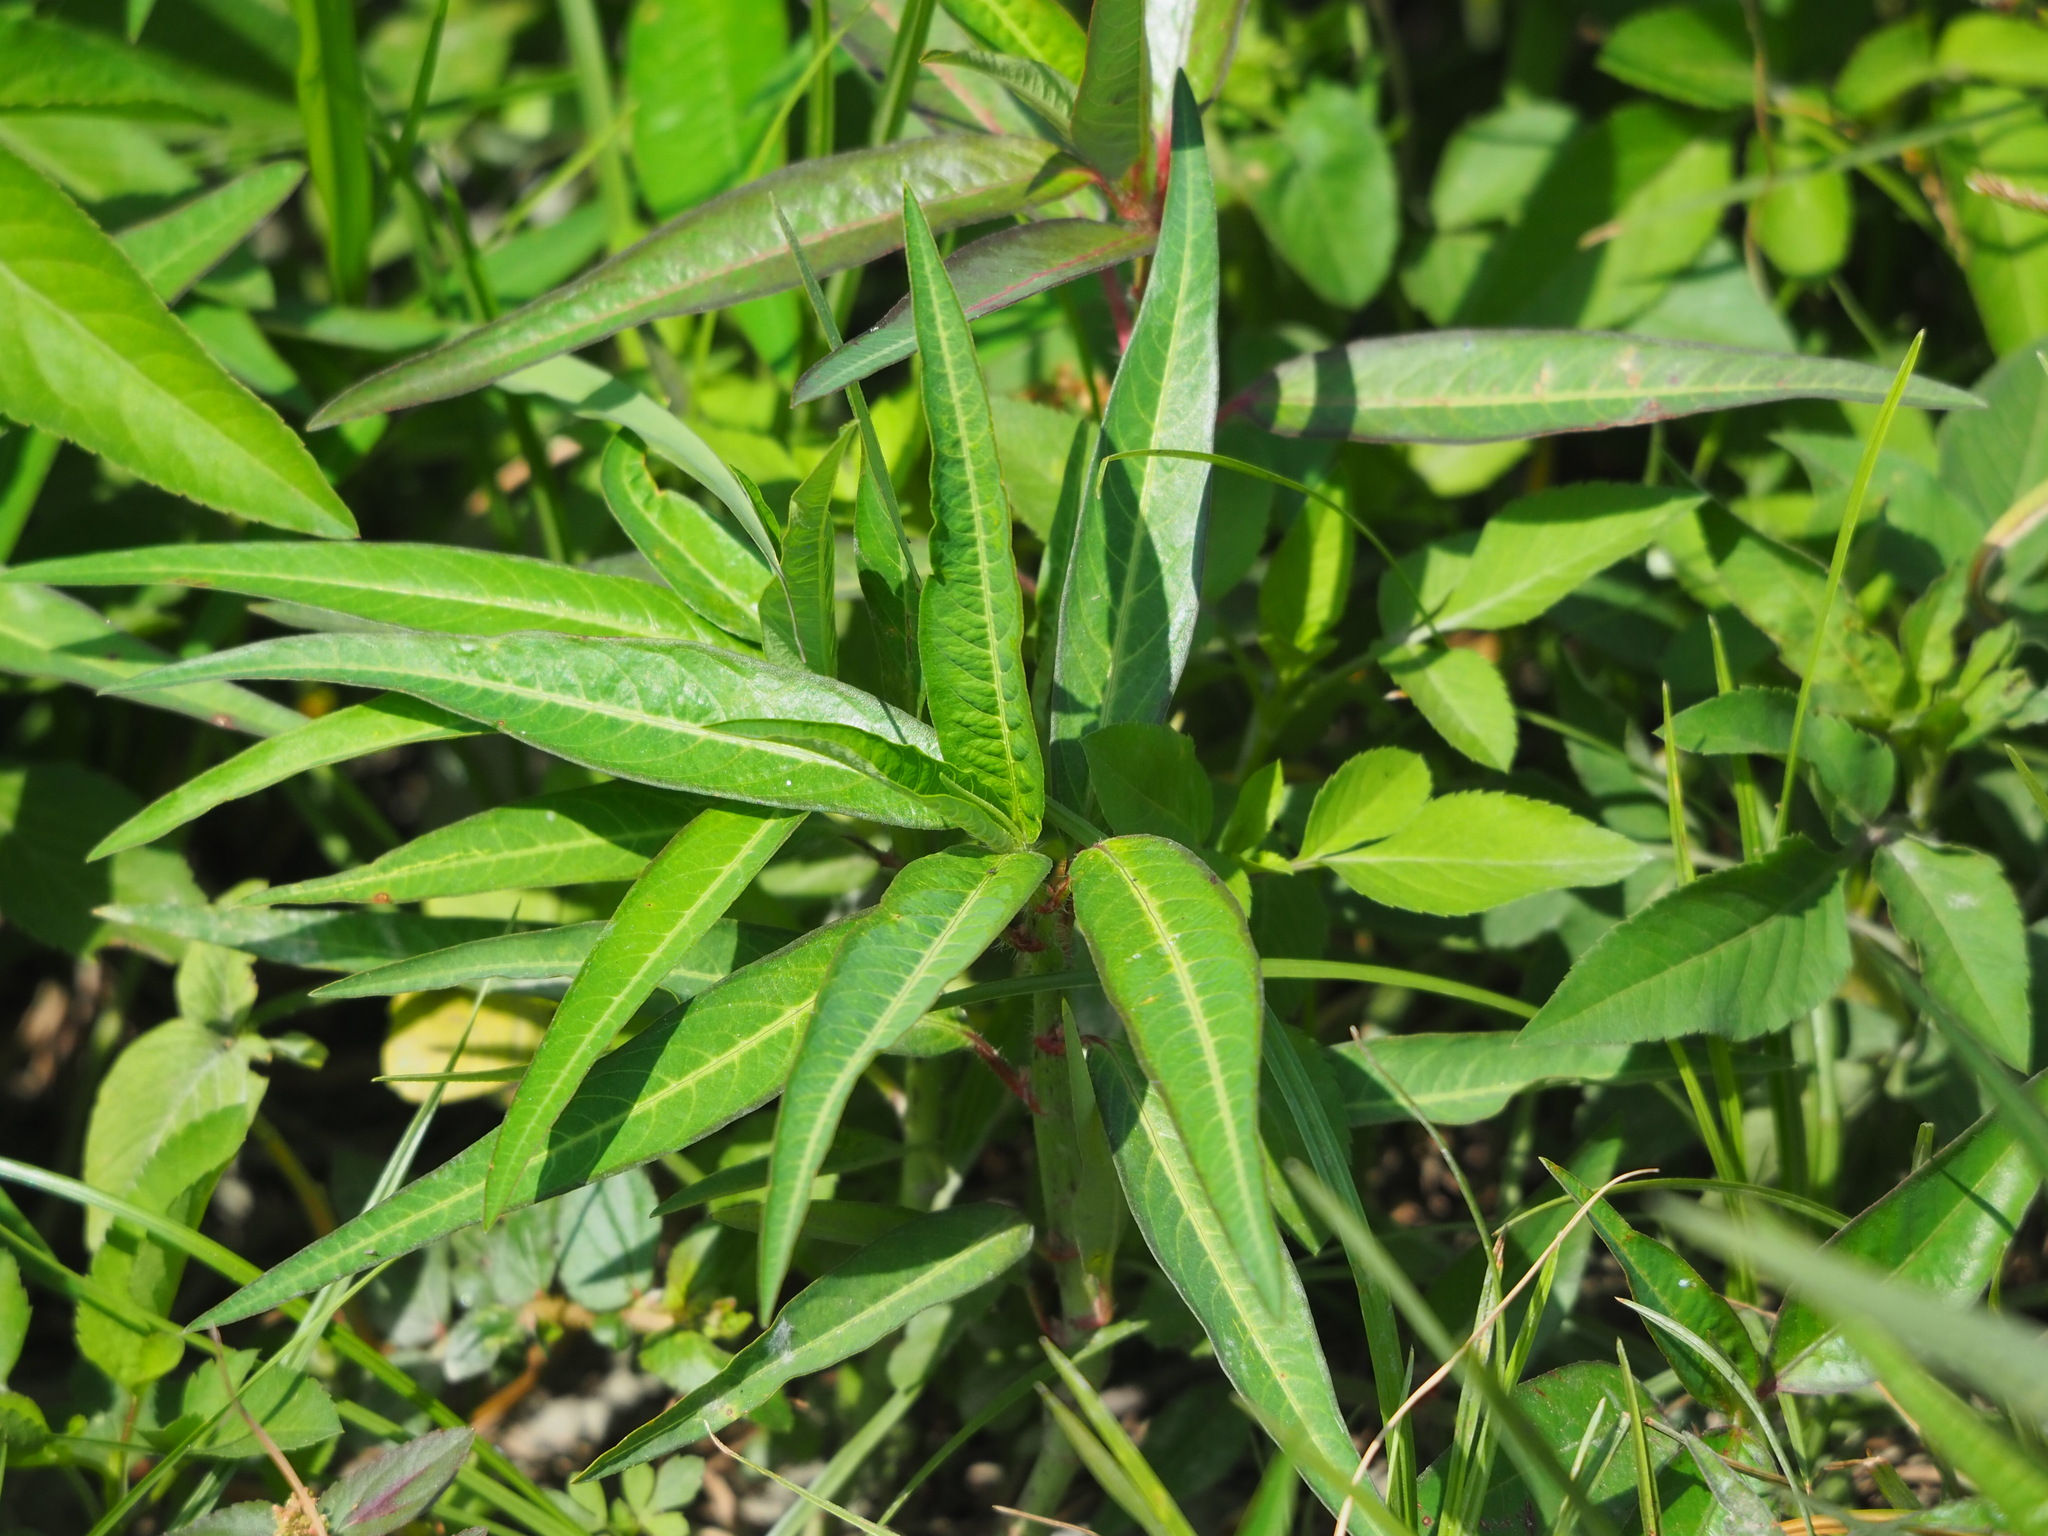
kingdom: Plantae
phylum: Tracheophyta
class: Magnoliopsida
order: Malpighiales
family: Euphorbiaceae
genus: Euphorbia
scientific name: Euphorbia heterophylla
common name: Mexican fireplant
